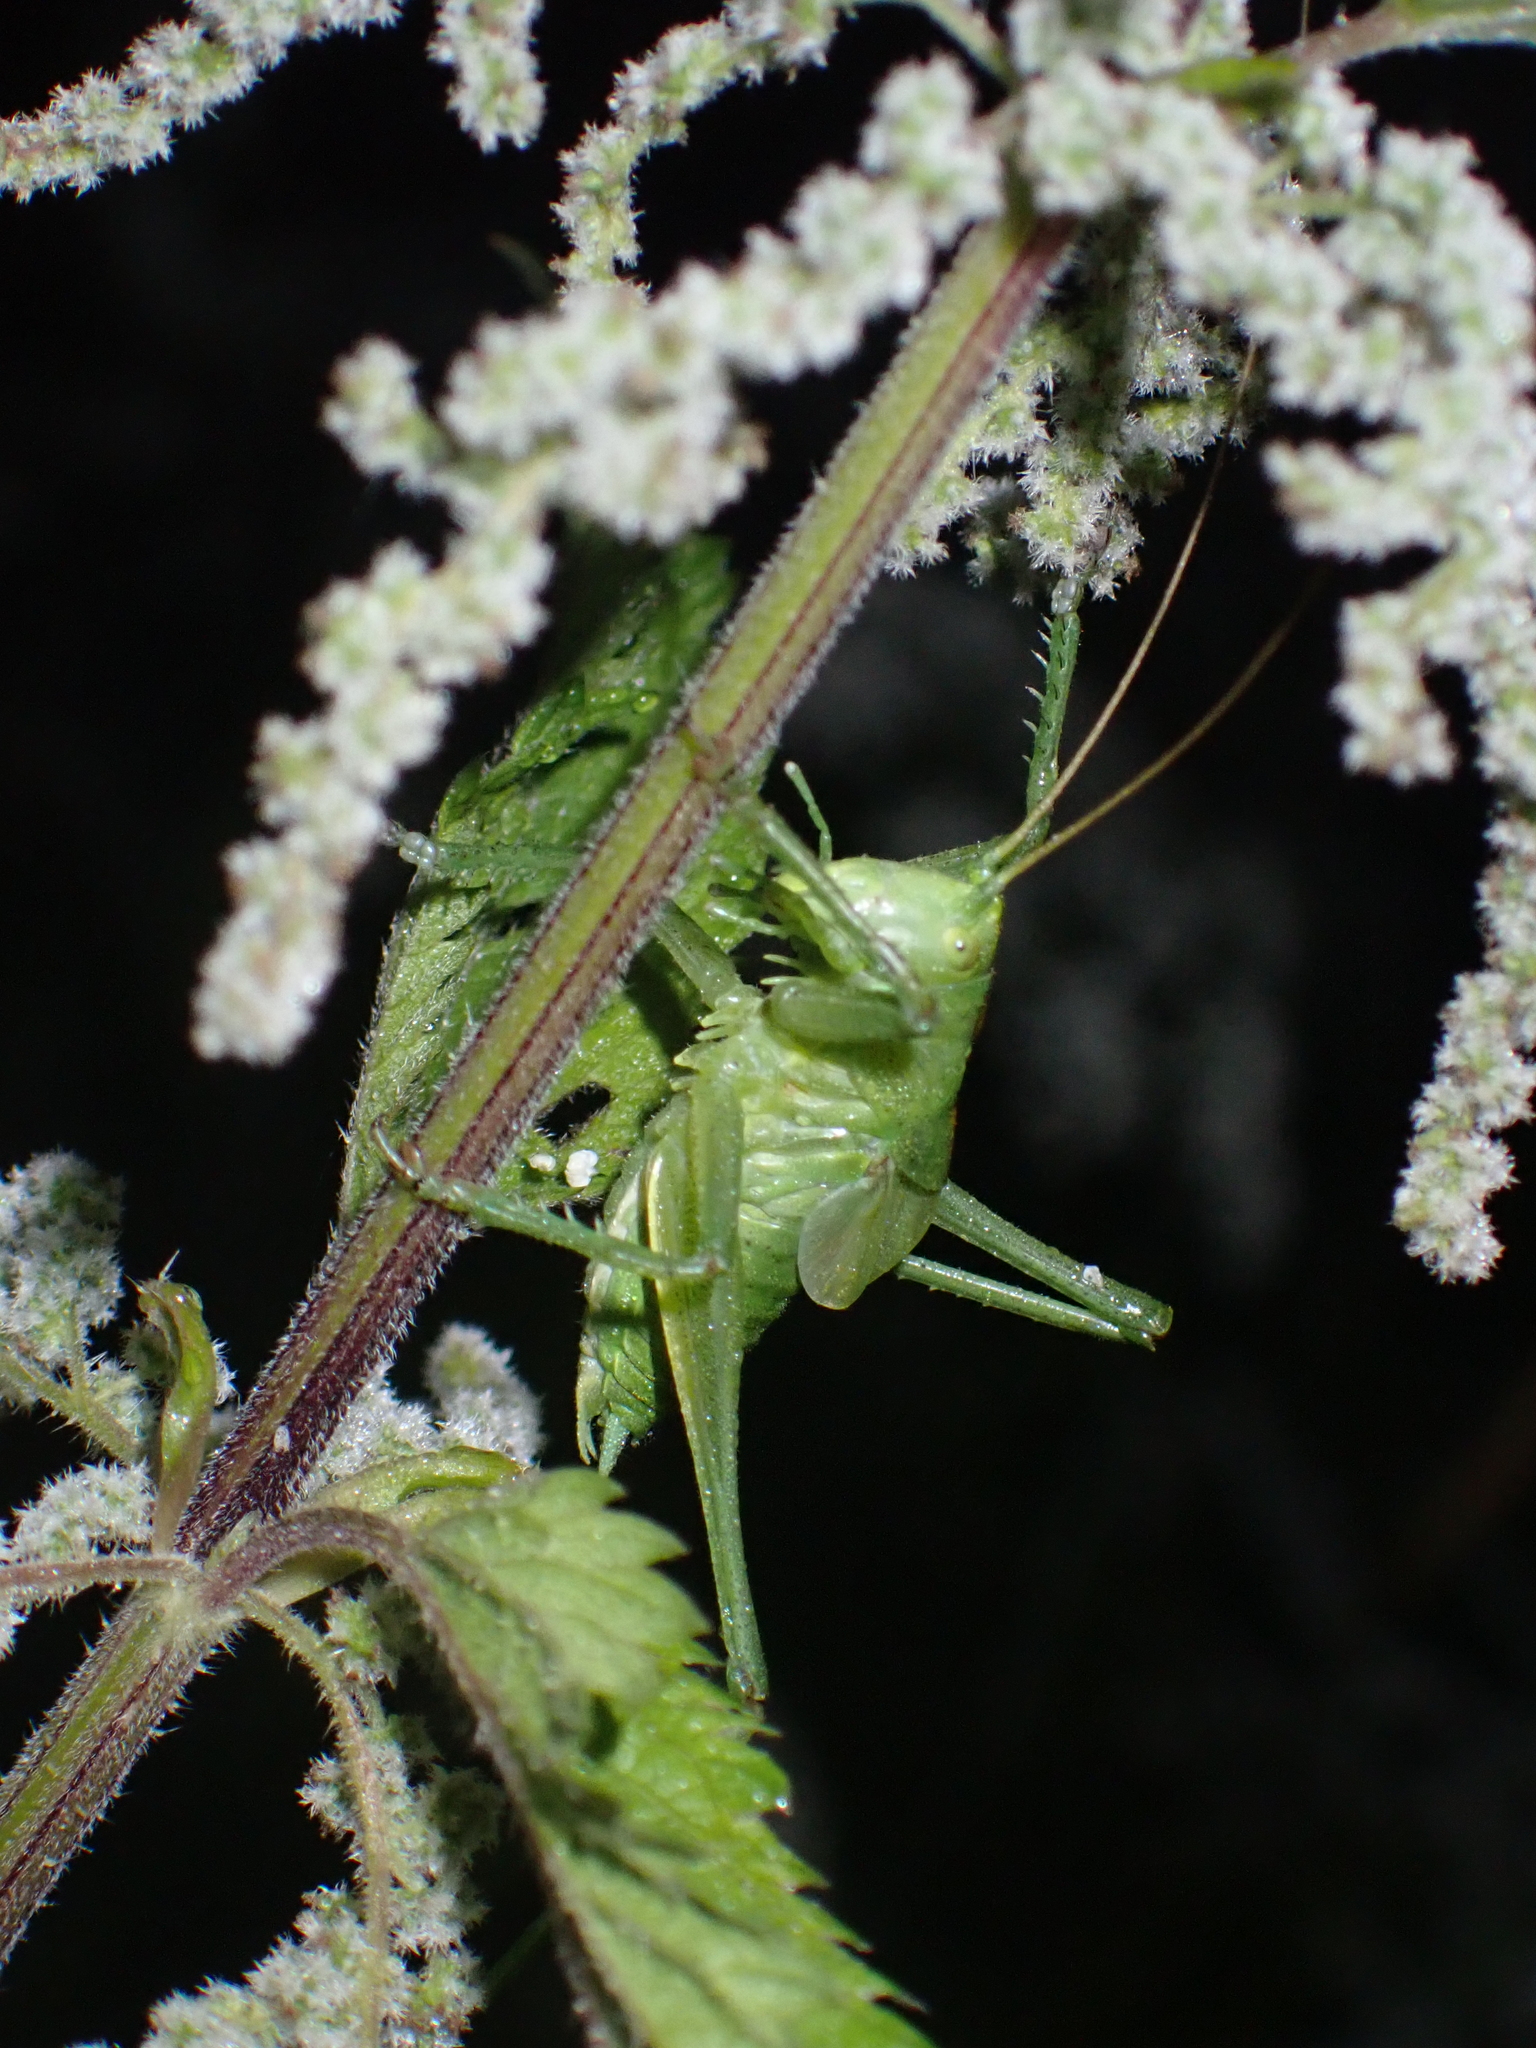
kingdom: Animalia
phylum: Arthropoda
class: Insecta
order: Orthoptera
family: Tettigoniidae
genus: Tettigonia
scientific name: Tettigonia cantans
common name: Upland green bush-cricket
